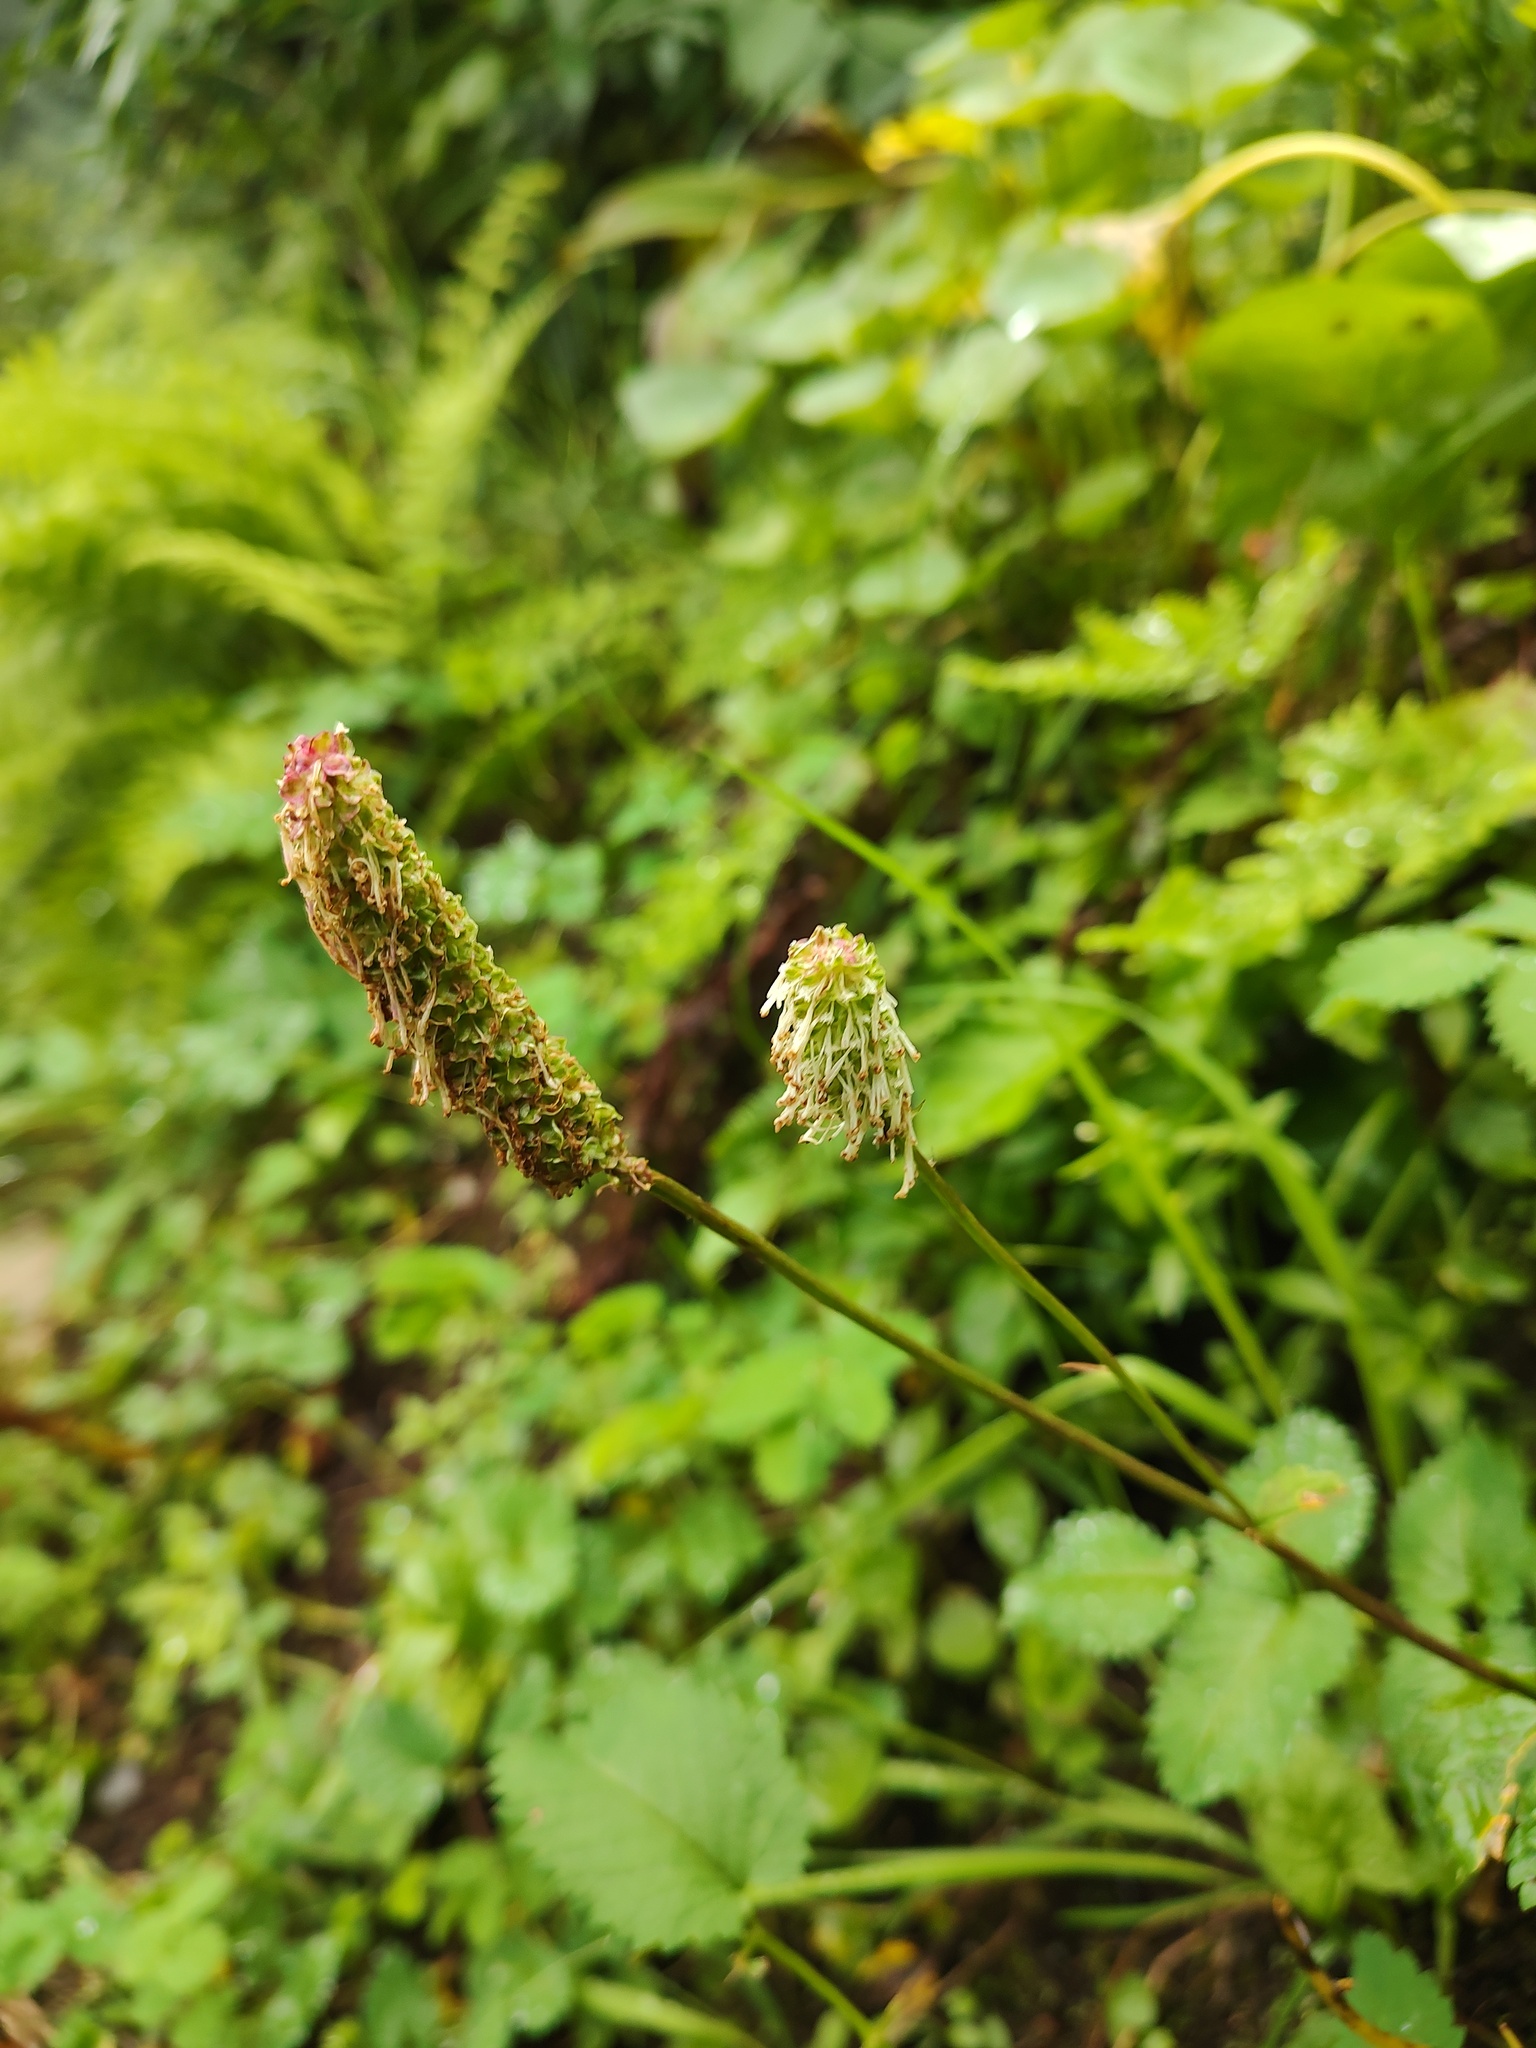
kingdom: Plantae
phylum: Tracheophyta
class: Magnoliopsida
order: Rosales
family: Rosaceae
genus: Sanguisorba
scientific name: Sanguisorba stipulata
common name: Sitka burnet
